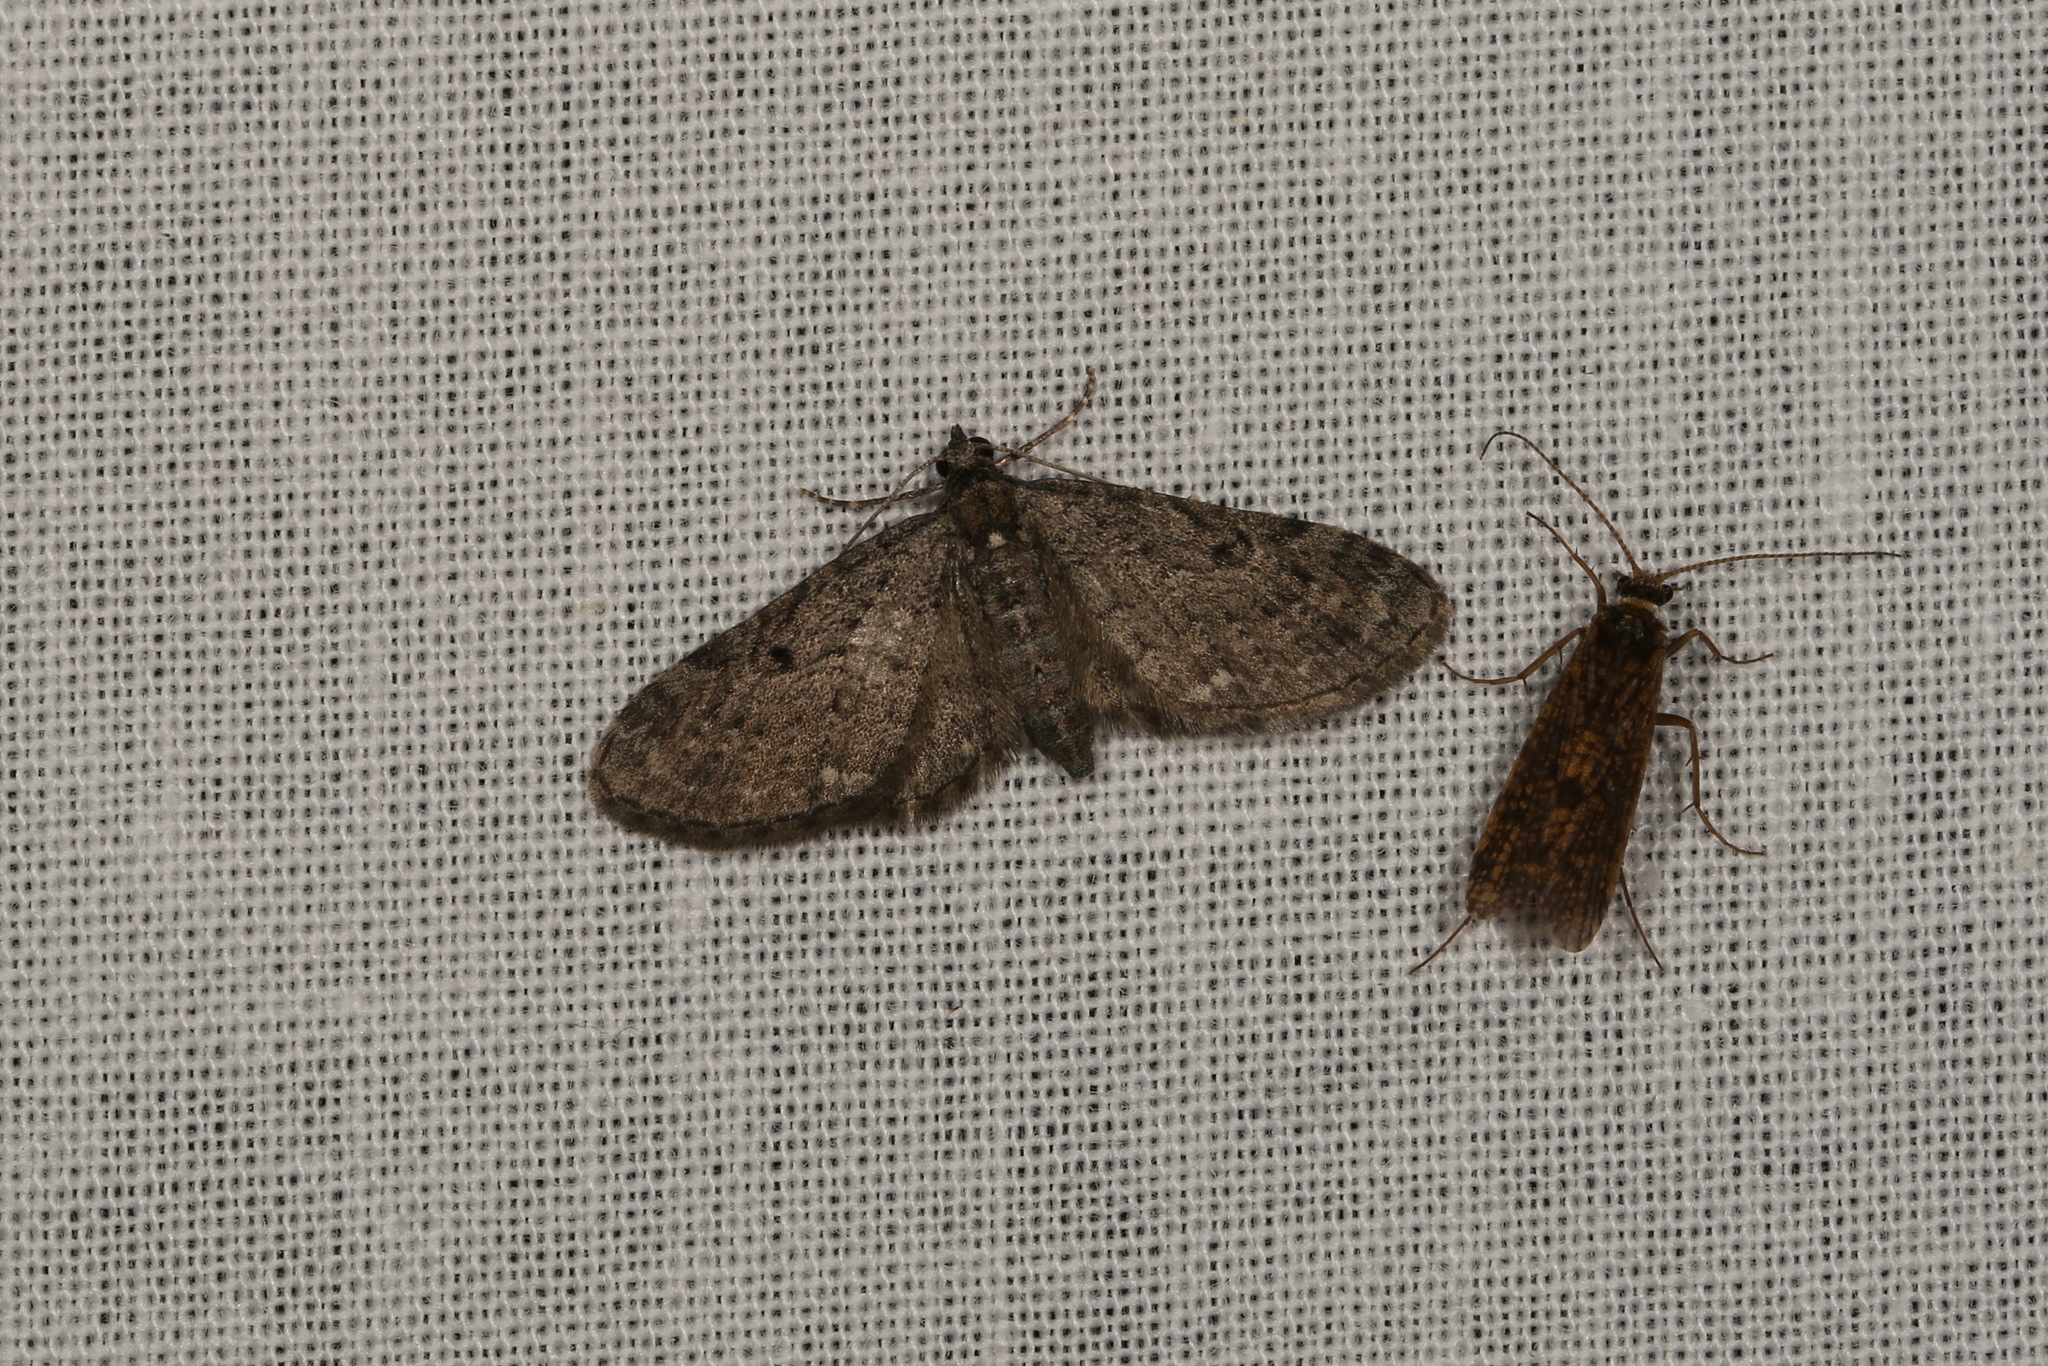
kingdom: Animalia
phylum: Arthropoda
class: Insecta
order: Lepidoptera
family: Geometridae
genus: Eupithecia
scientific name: Eupithecia virgaureata
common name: Golden-rod pug
